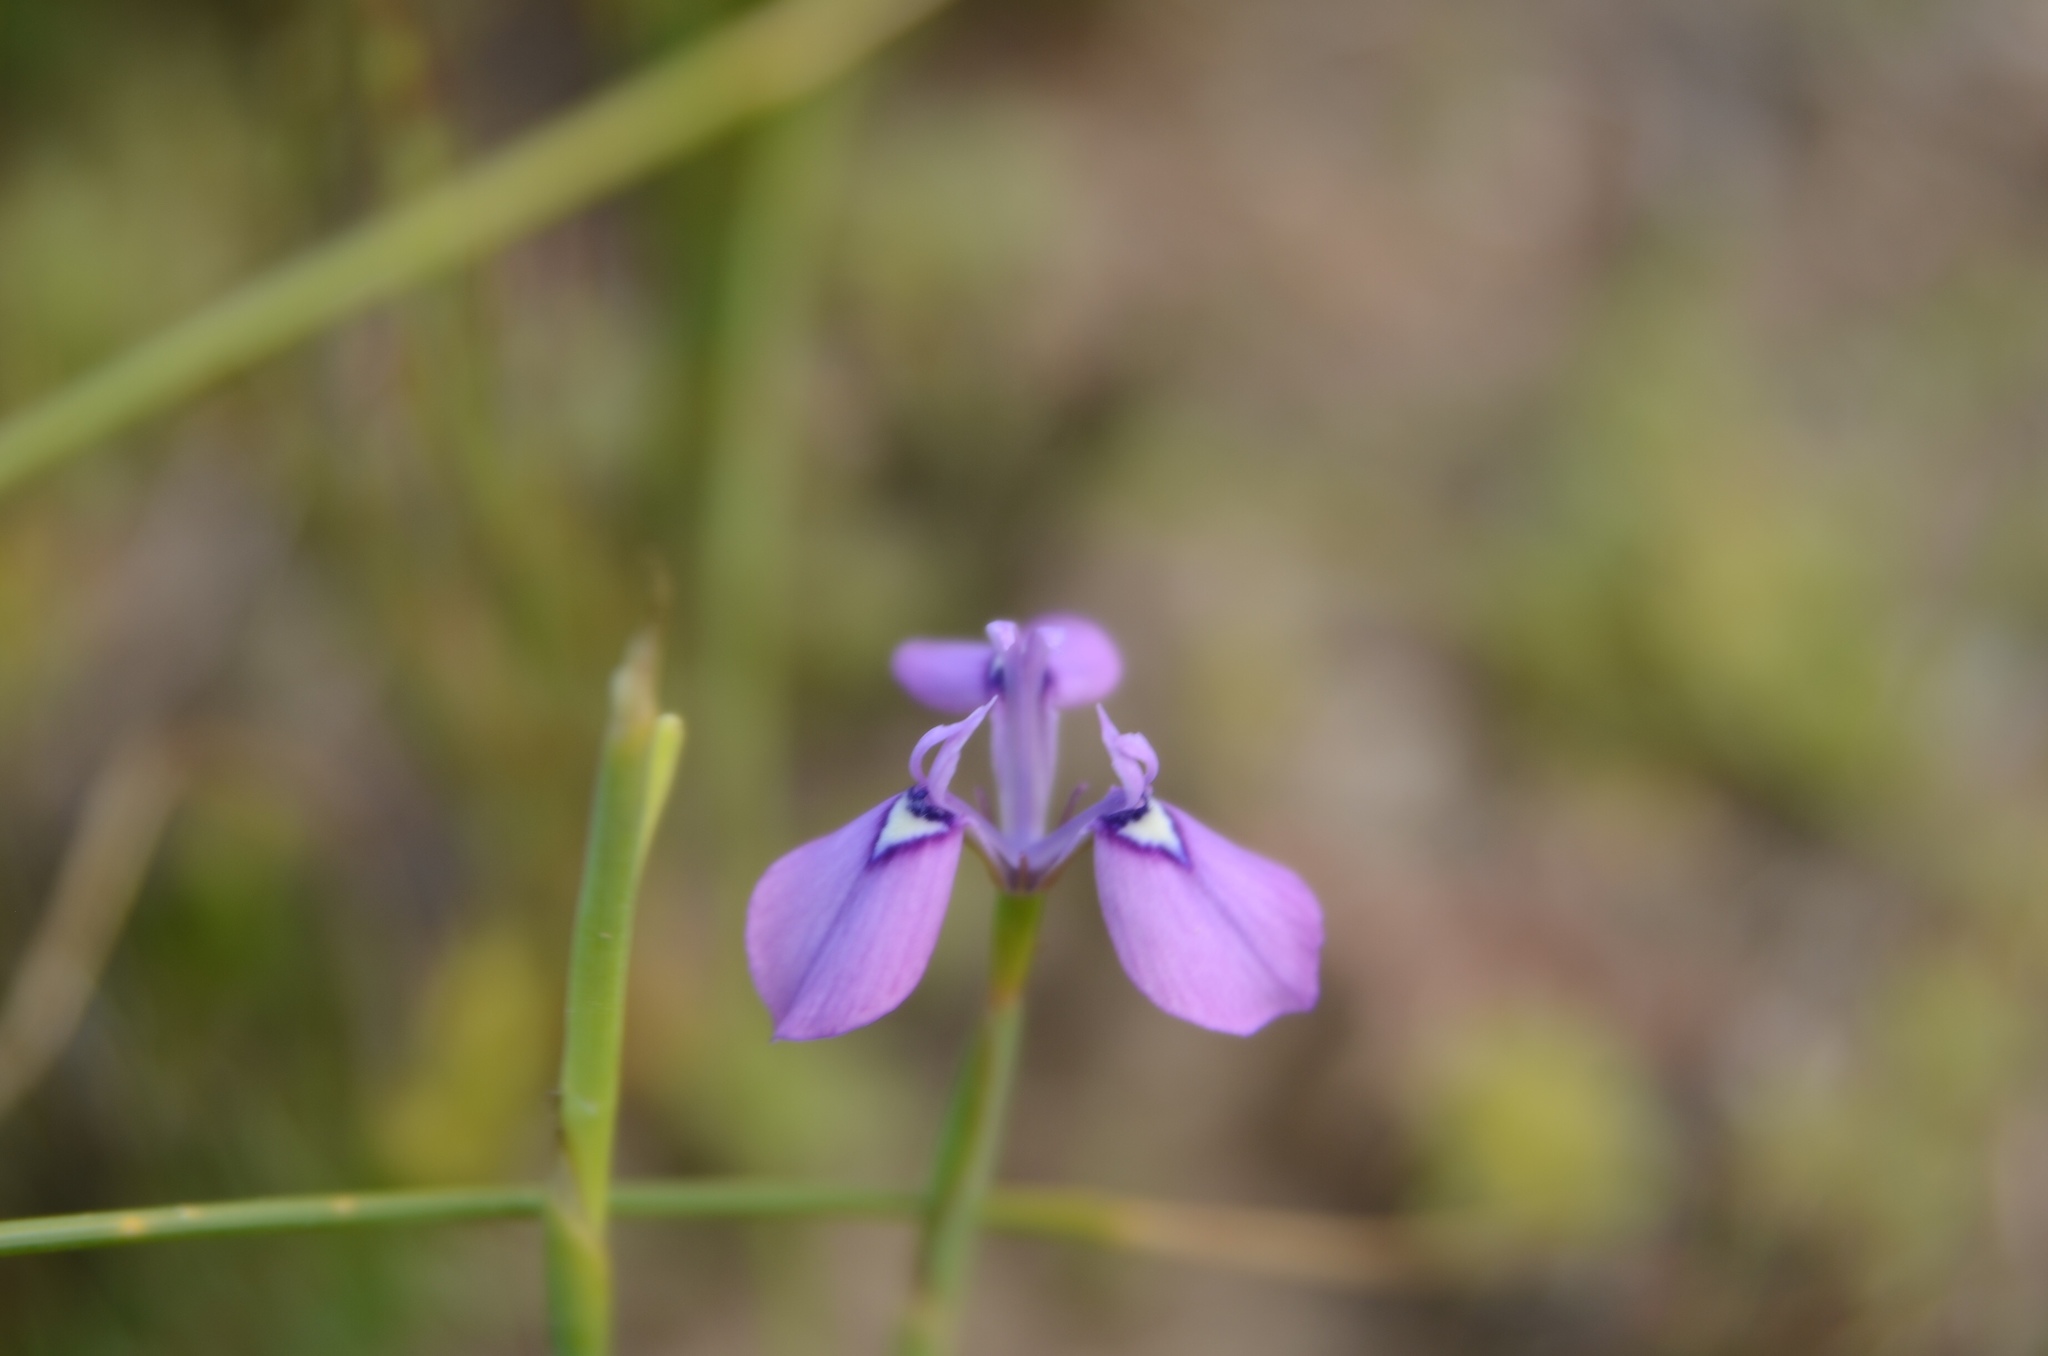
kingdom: Plantae
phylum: Tracheophyta
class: Liliopsida
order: Asparagales
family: Iridaceae
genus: Moraea
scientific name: Moraea tripetala
